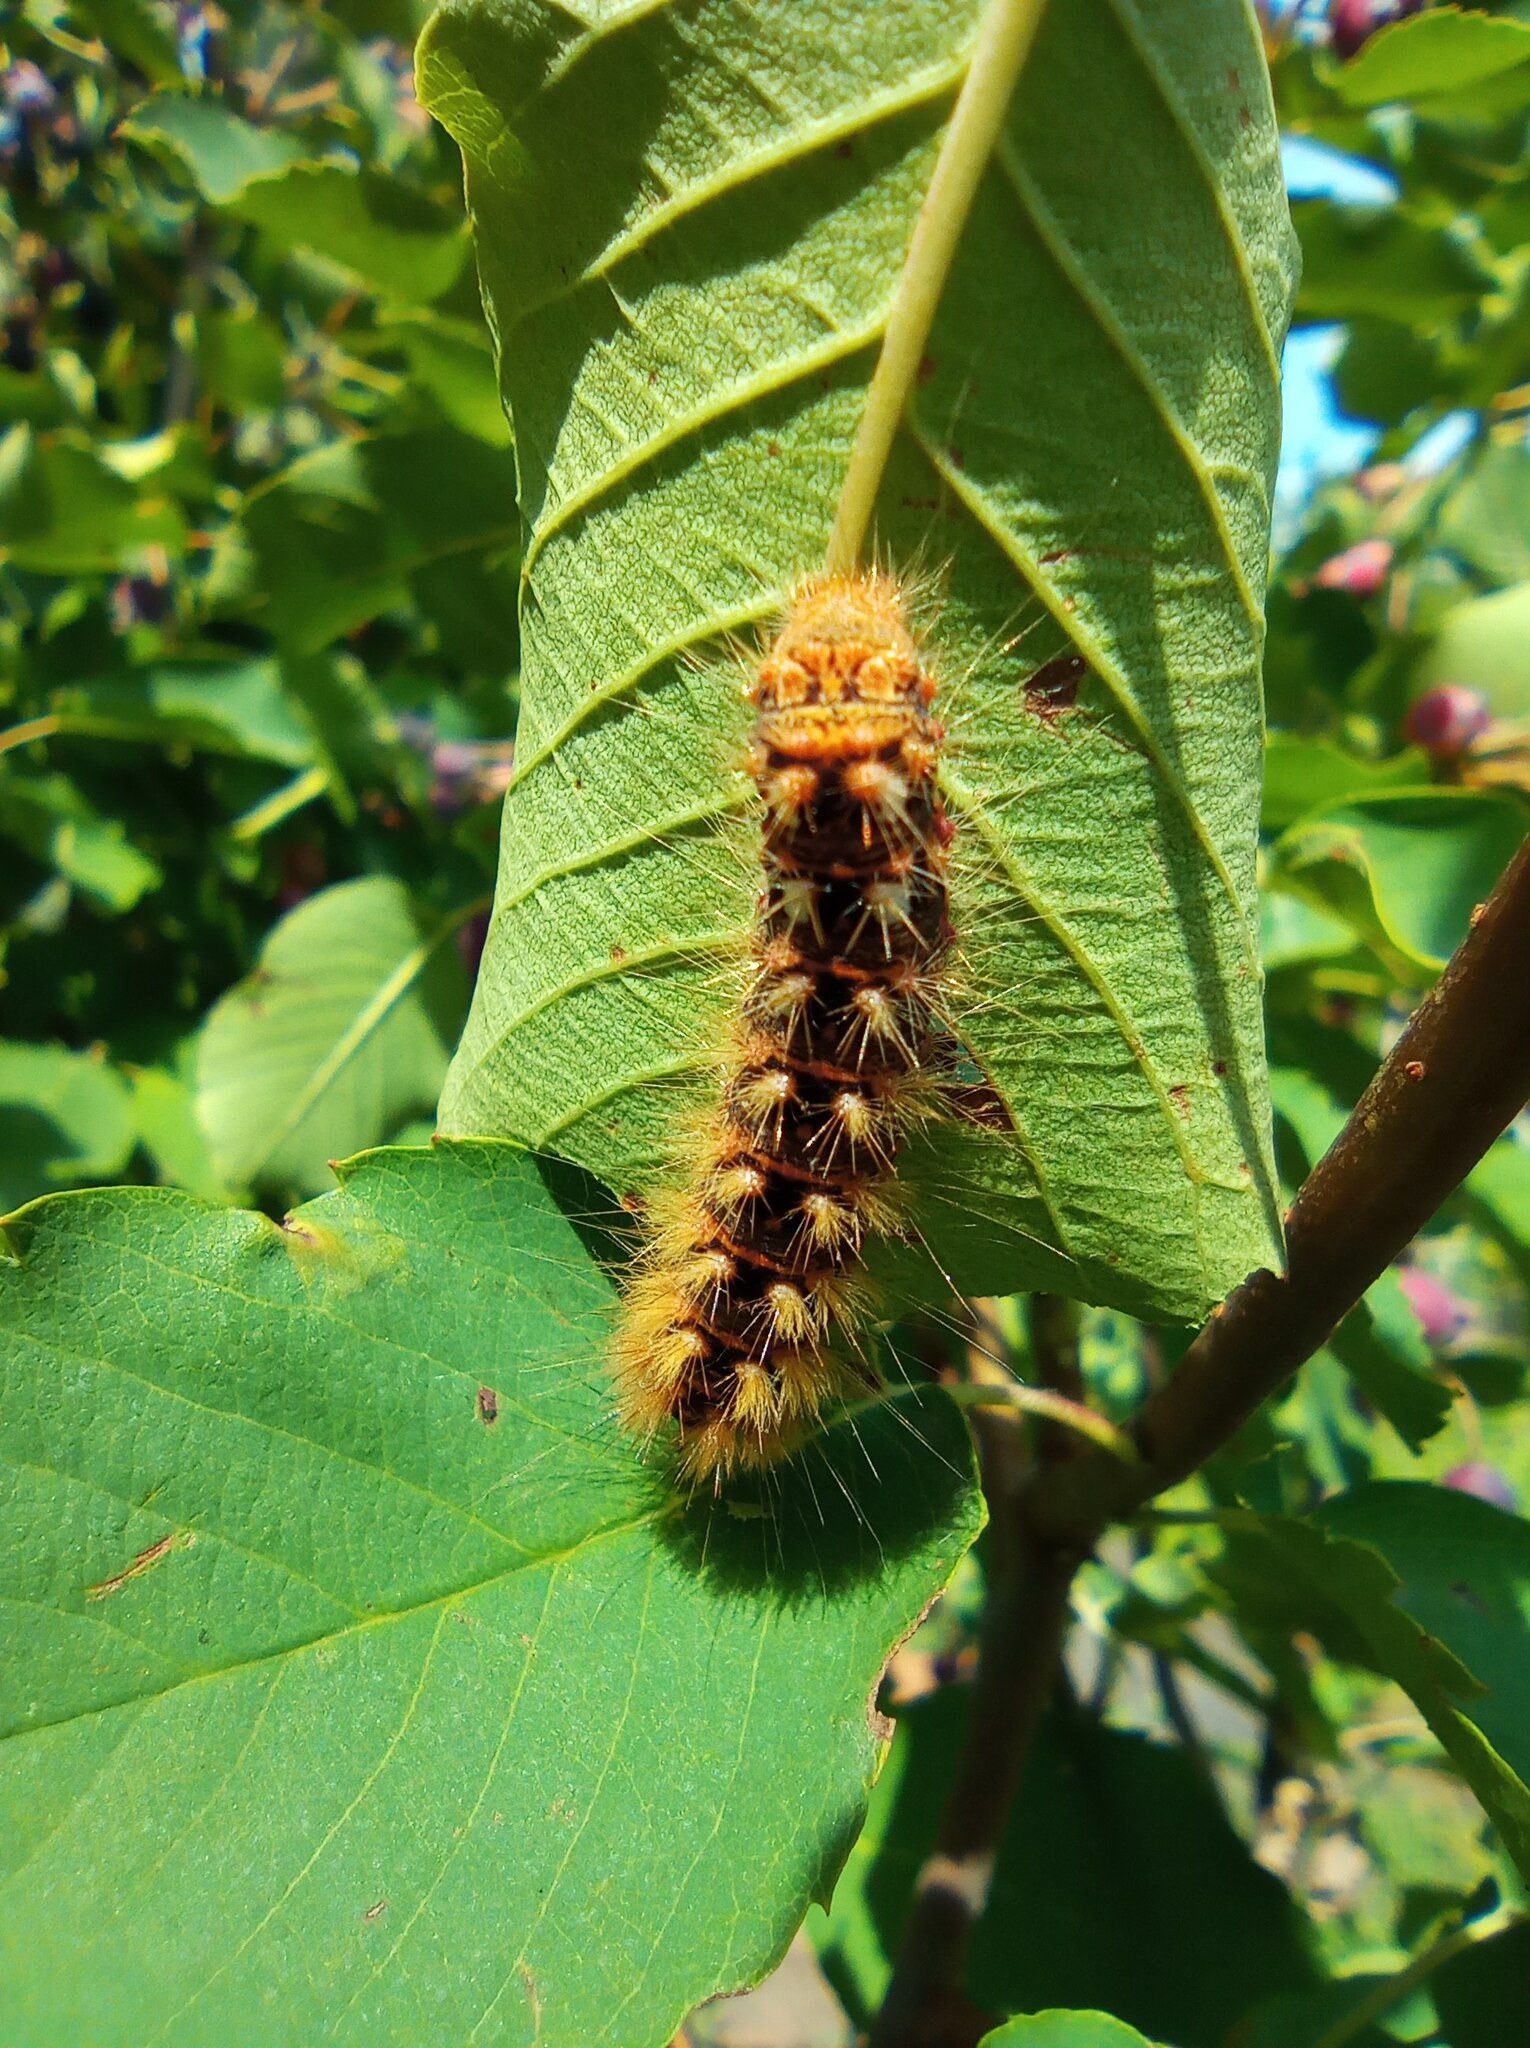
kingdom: Animalia
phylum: Arthropoda
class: Insecta
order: Lepidoptera
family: Noctuidae
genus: Acronicta
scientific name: Acronicta rumicis
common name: Knot grass
